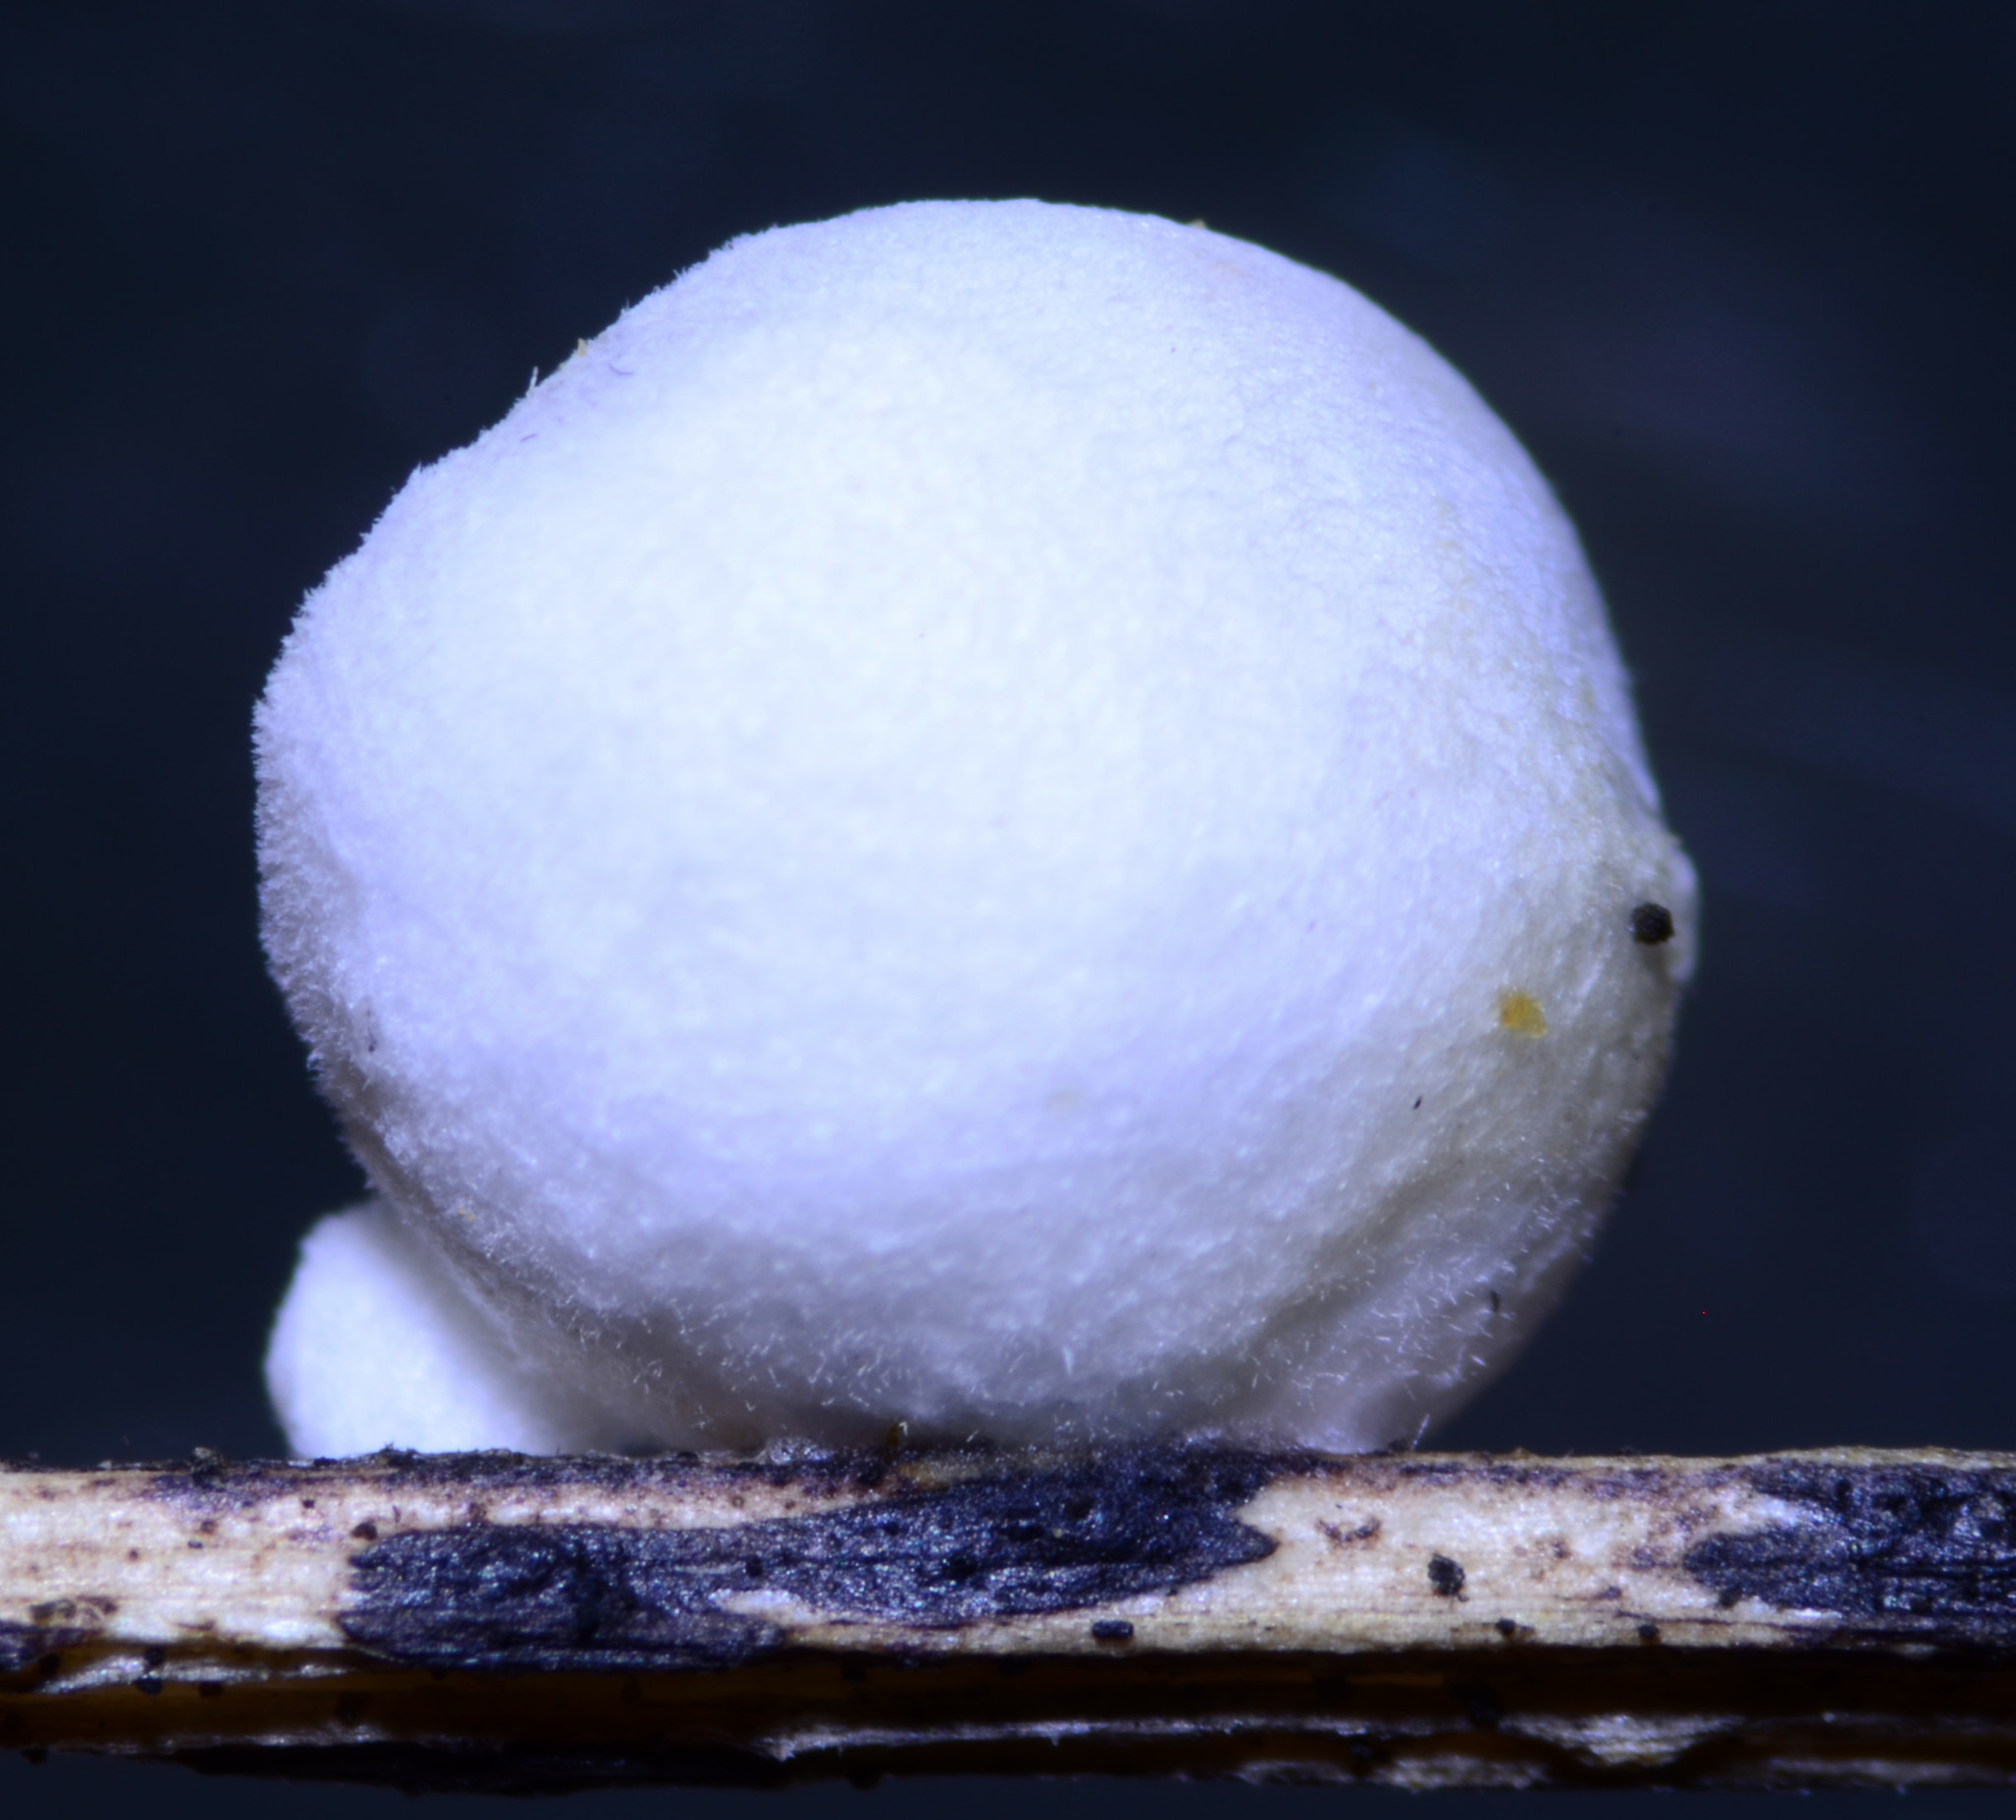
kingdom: Fungi
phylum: Basidiomycota
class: Agaricomycetes
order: Agaricales
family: Crepidotaceae
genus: Crepidotus
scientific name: Crepidotus epibryus
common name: Grass oysterling
